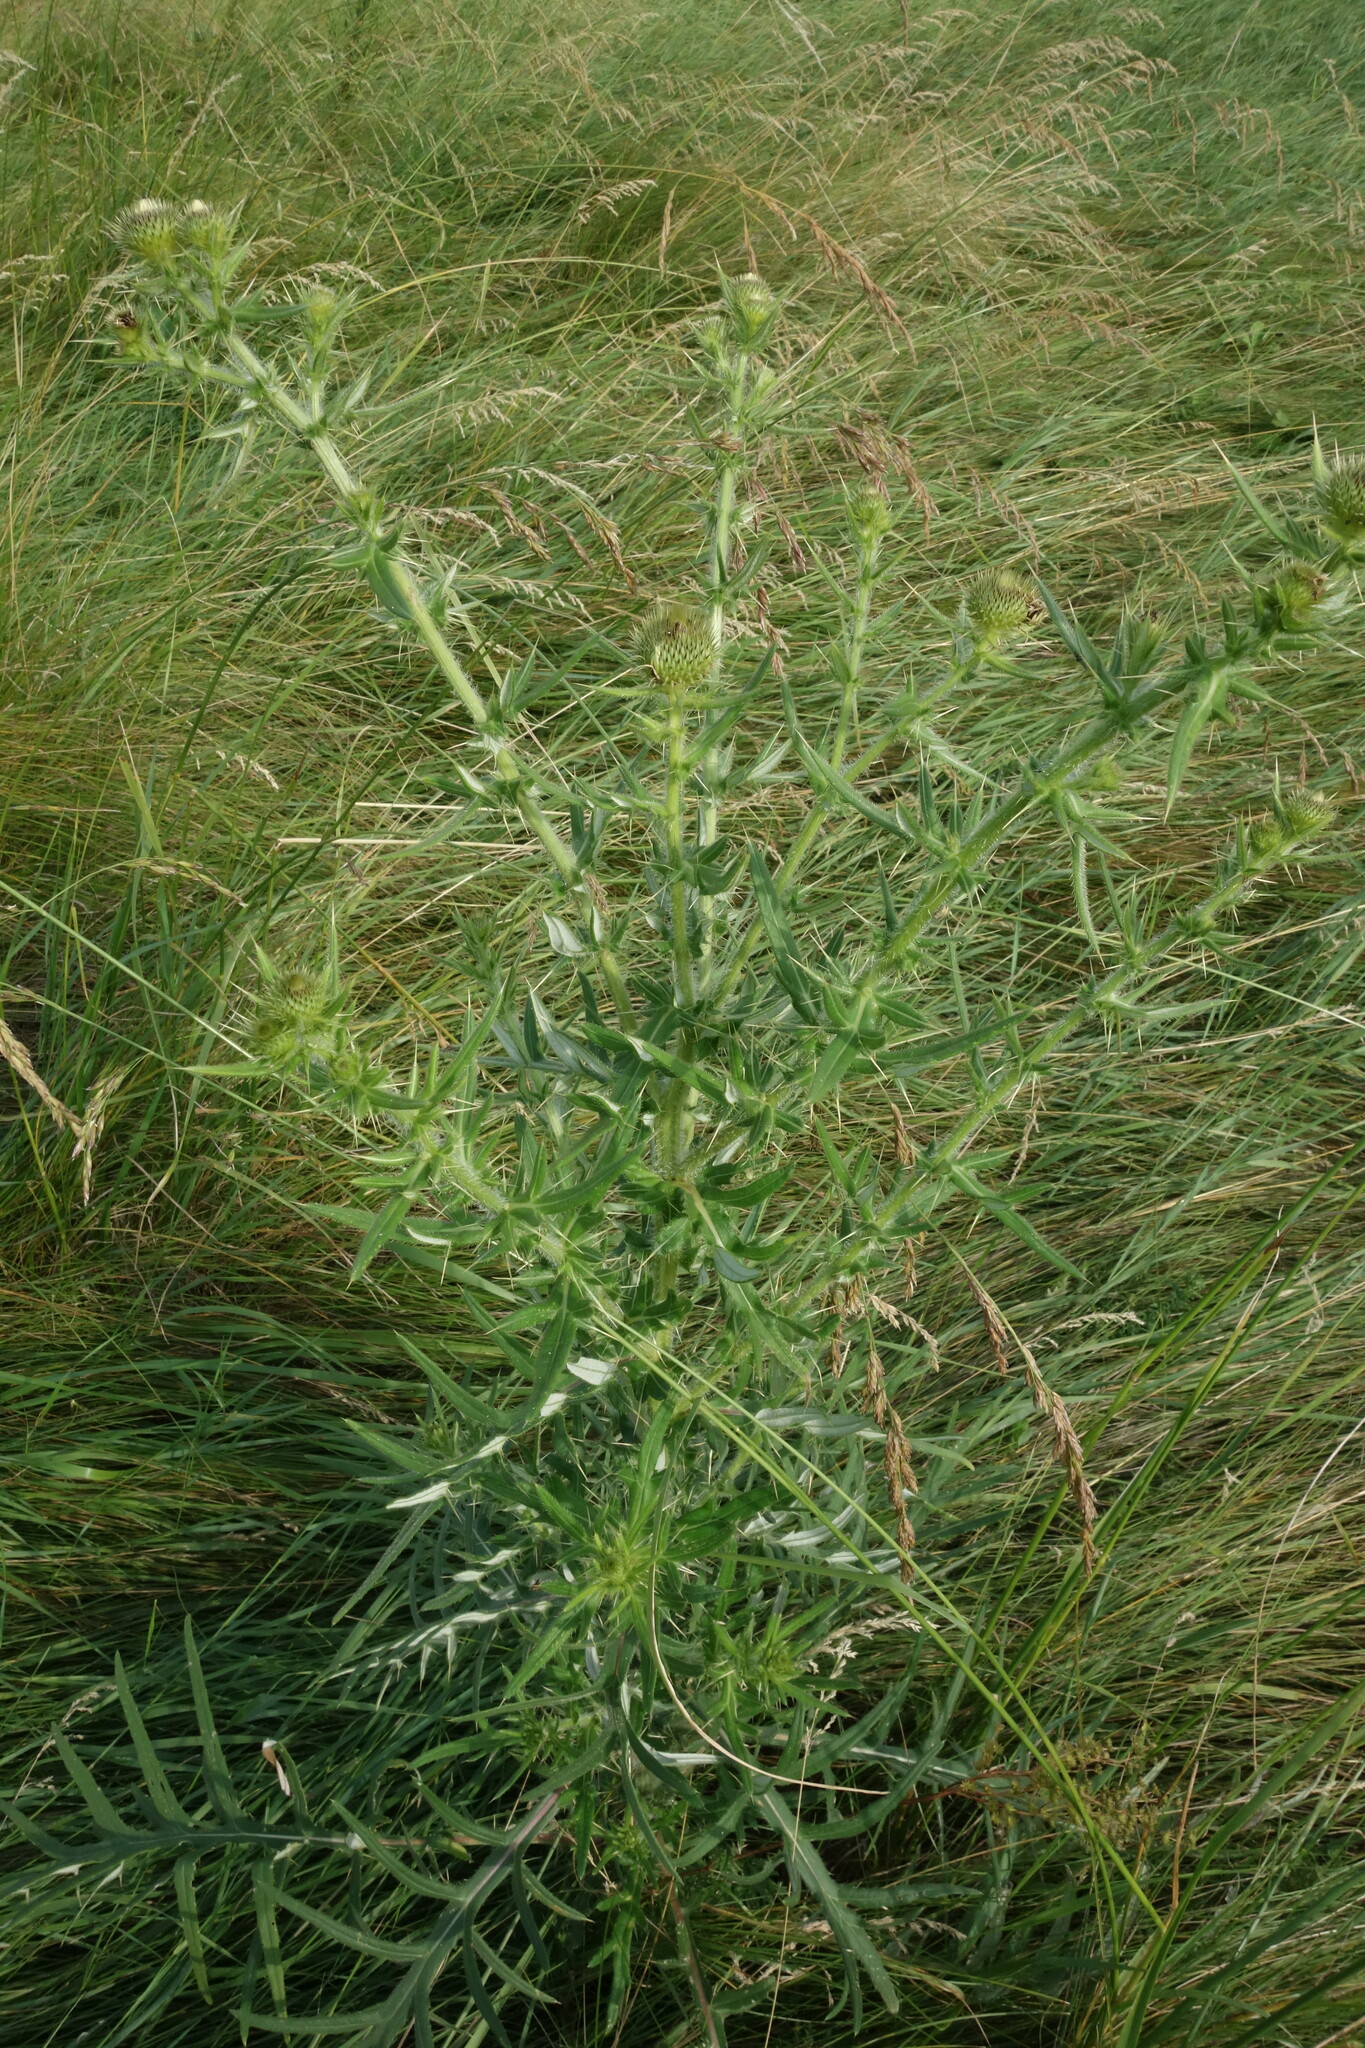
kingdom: Plantae
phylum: Tracheophyta
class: Magnoliopsida
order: Asterales
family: Asteraceae
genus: Cirsium
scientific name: Cirsium serrulatum
